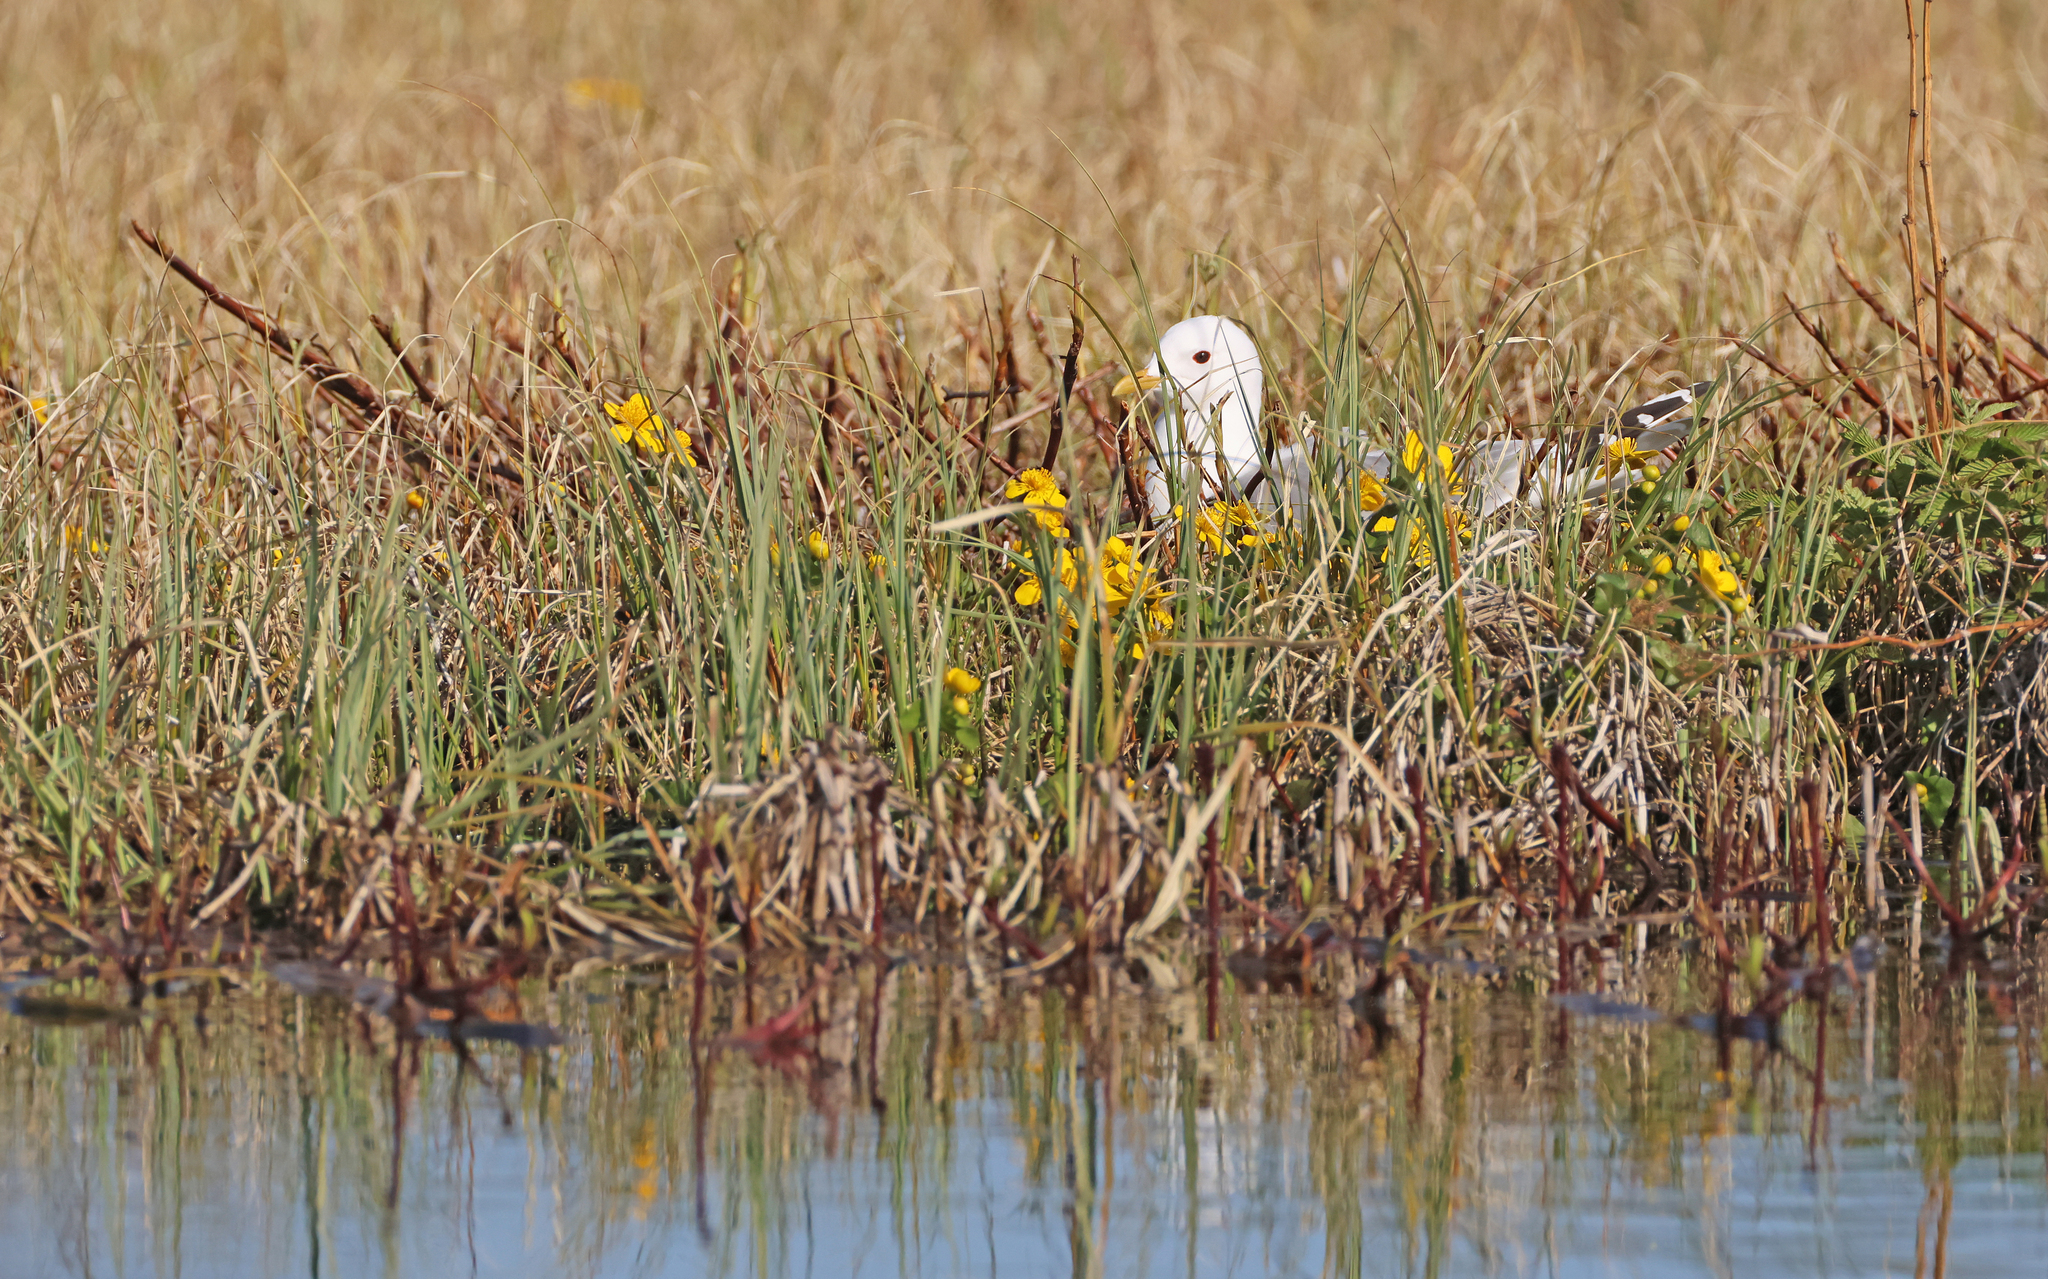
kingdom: Animalia
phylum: Chordata
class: Aves
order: Charadriiformes
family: Laridae
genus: Larus
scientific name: Larus canus
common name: Mew gull
